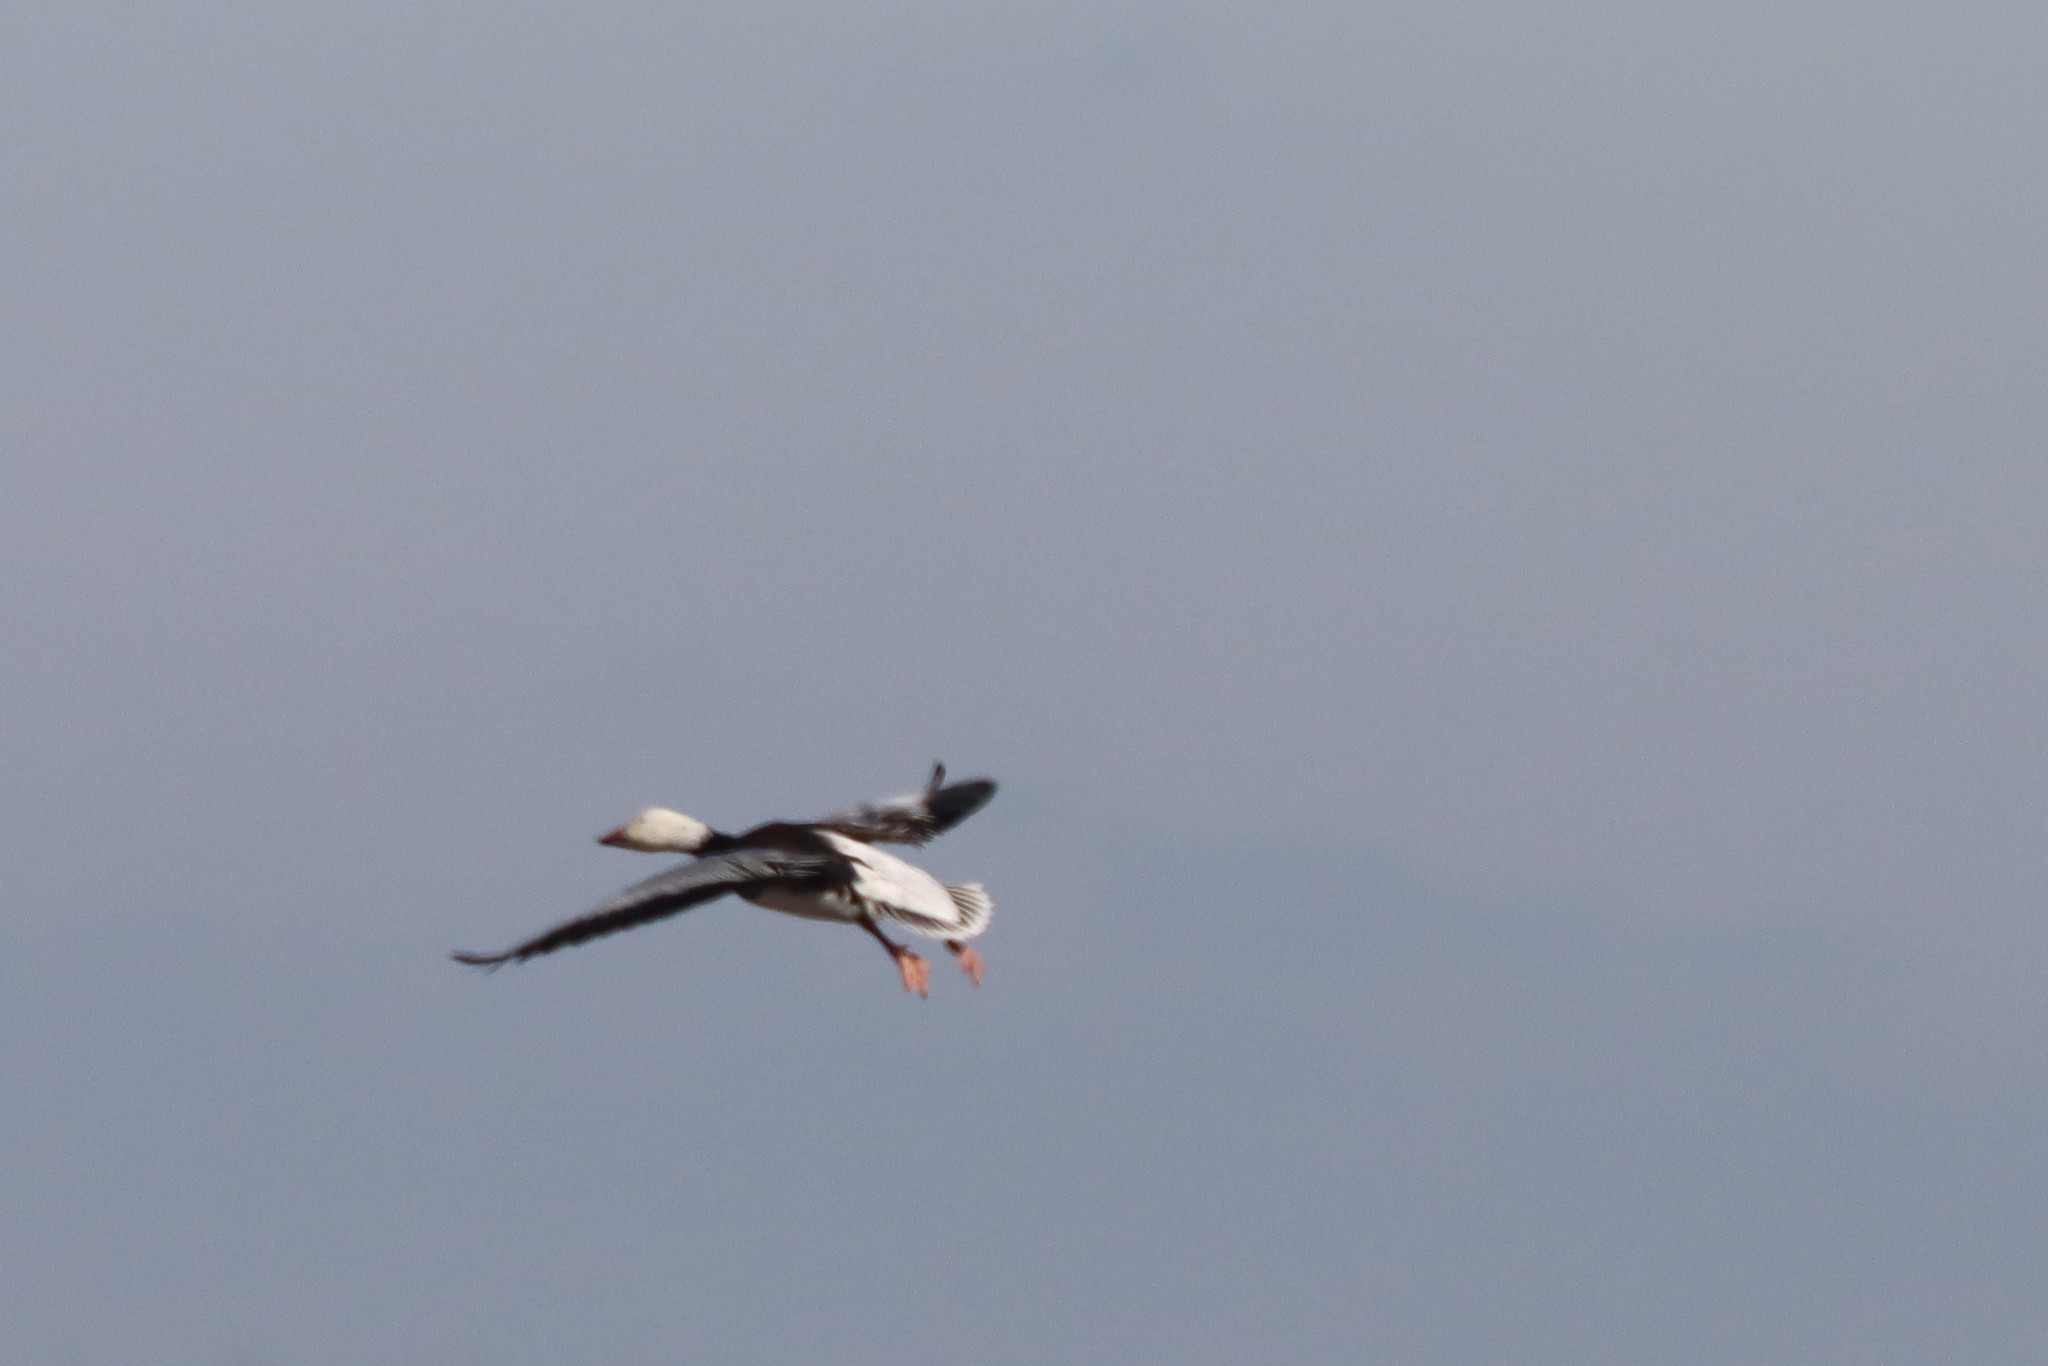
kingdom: Animalia
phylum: Chordata
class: Aves
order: Anseriformes
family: Anatidae
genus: Anser
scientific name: Anser caerulescens
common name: Snow goose
